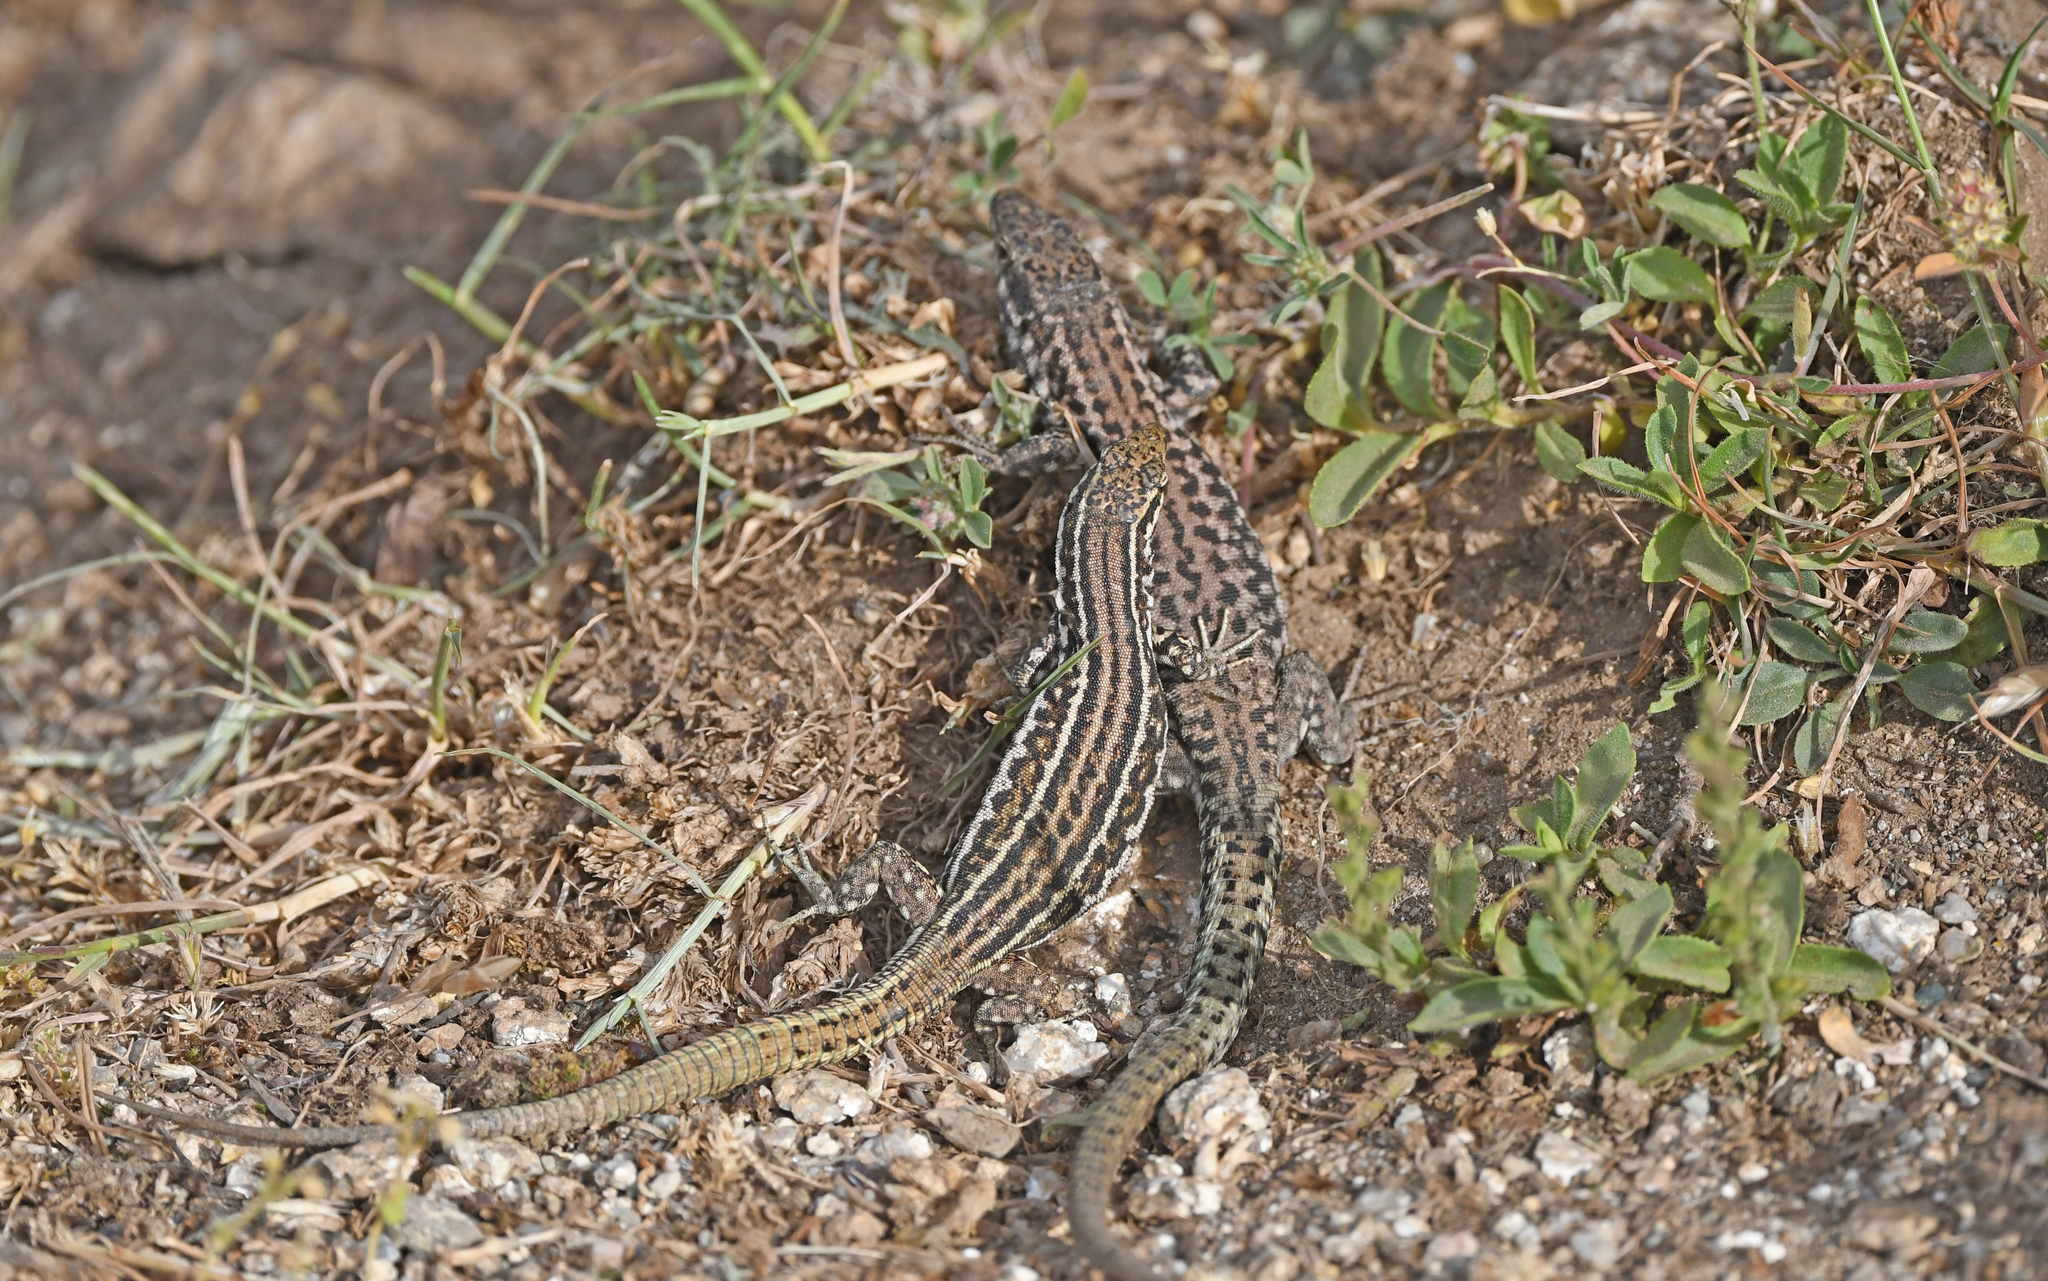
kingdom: Animalia
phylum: Chordata
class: Squamata
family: Lacertidae
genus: Podarcis
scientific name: Podarcis tiliguerta
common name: Tyrrhenian wall lizard
